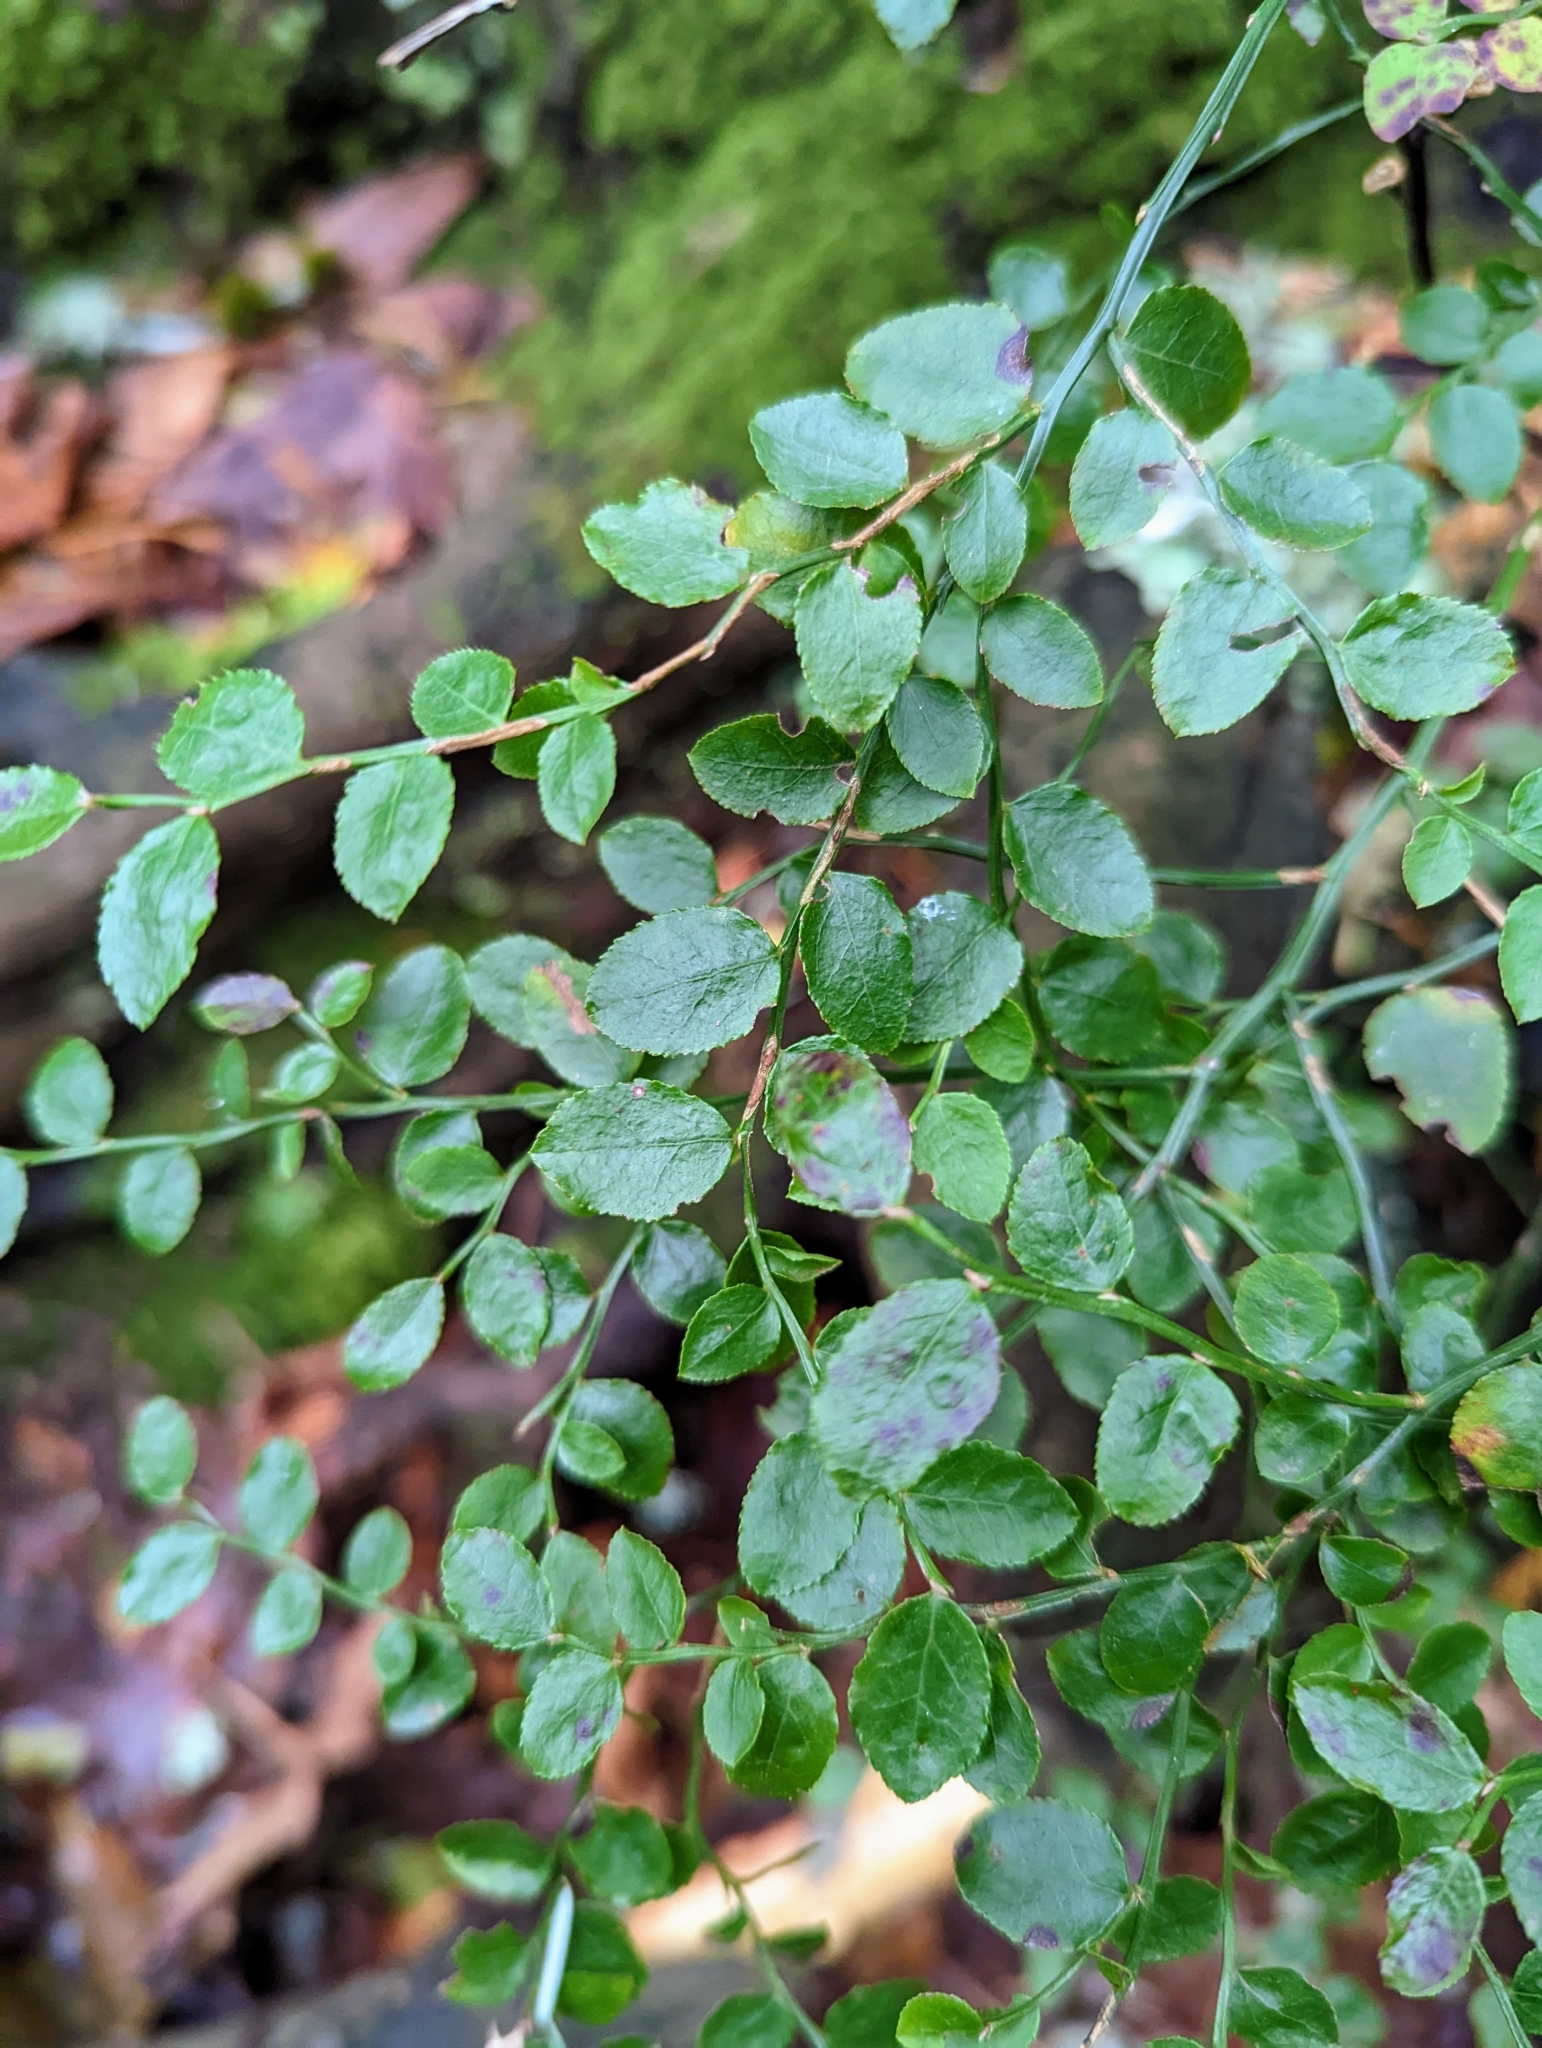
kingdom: Plantae
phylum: Tracheophyta
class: Magnoliopsida
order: Ericales
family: Ericaceae
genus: Vaccinium
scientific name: Vaccinium parvifolium
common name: Red-huckleberry
